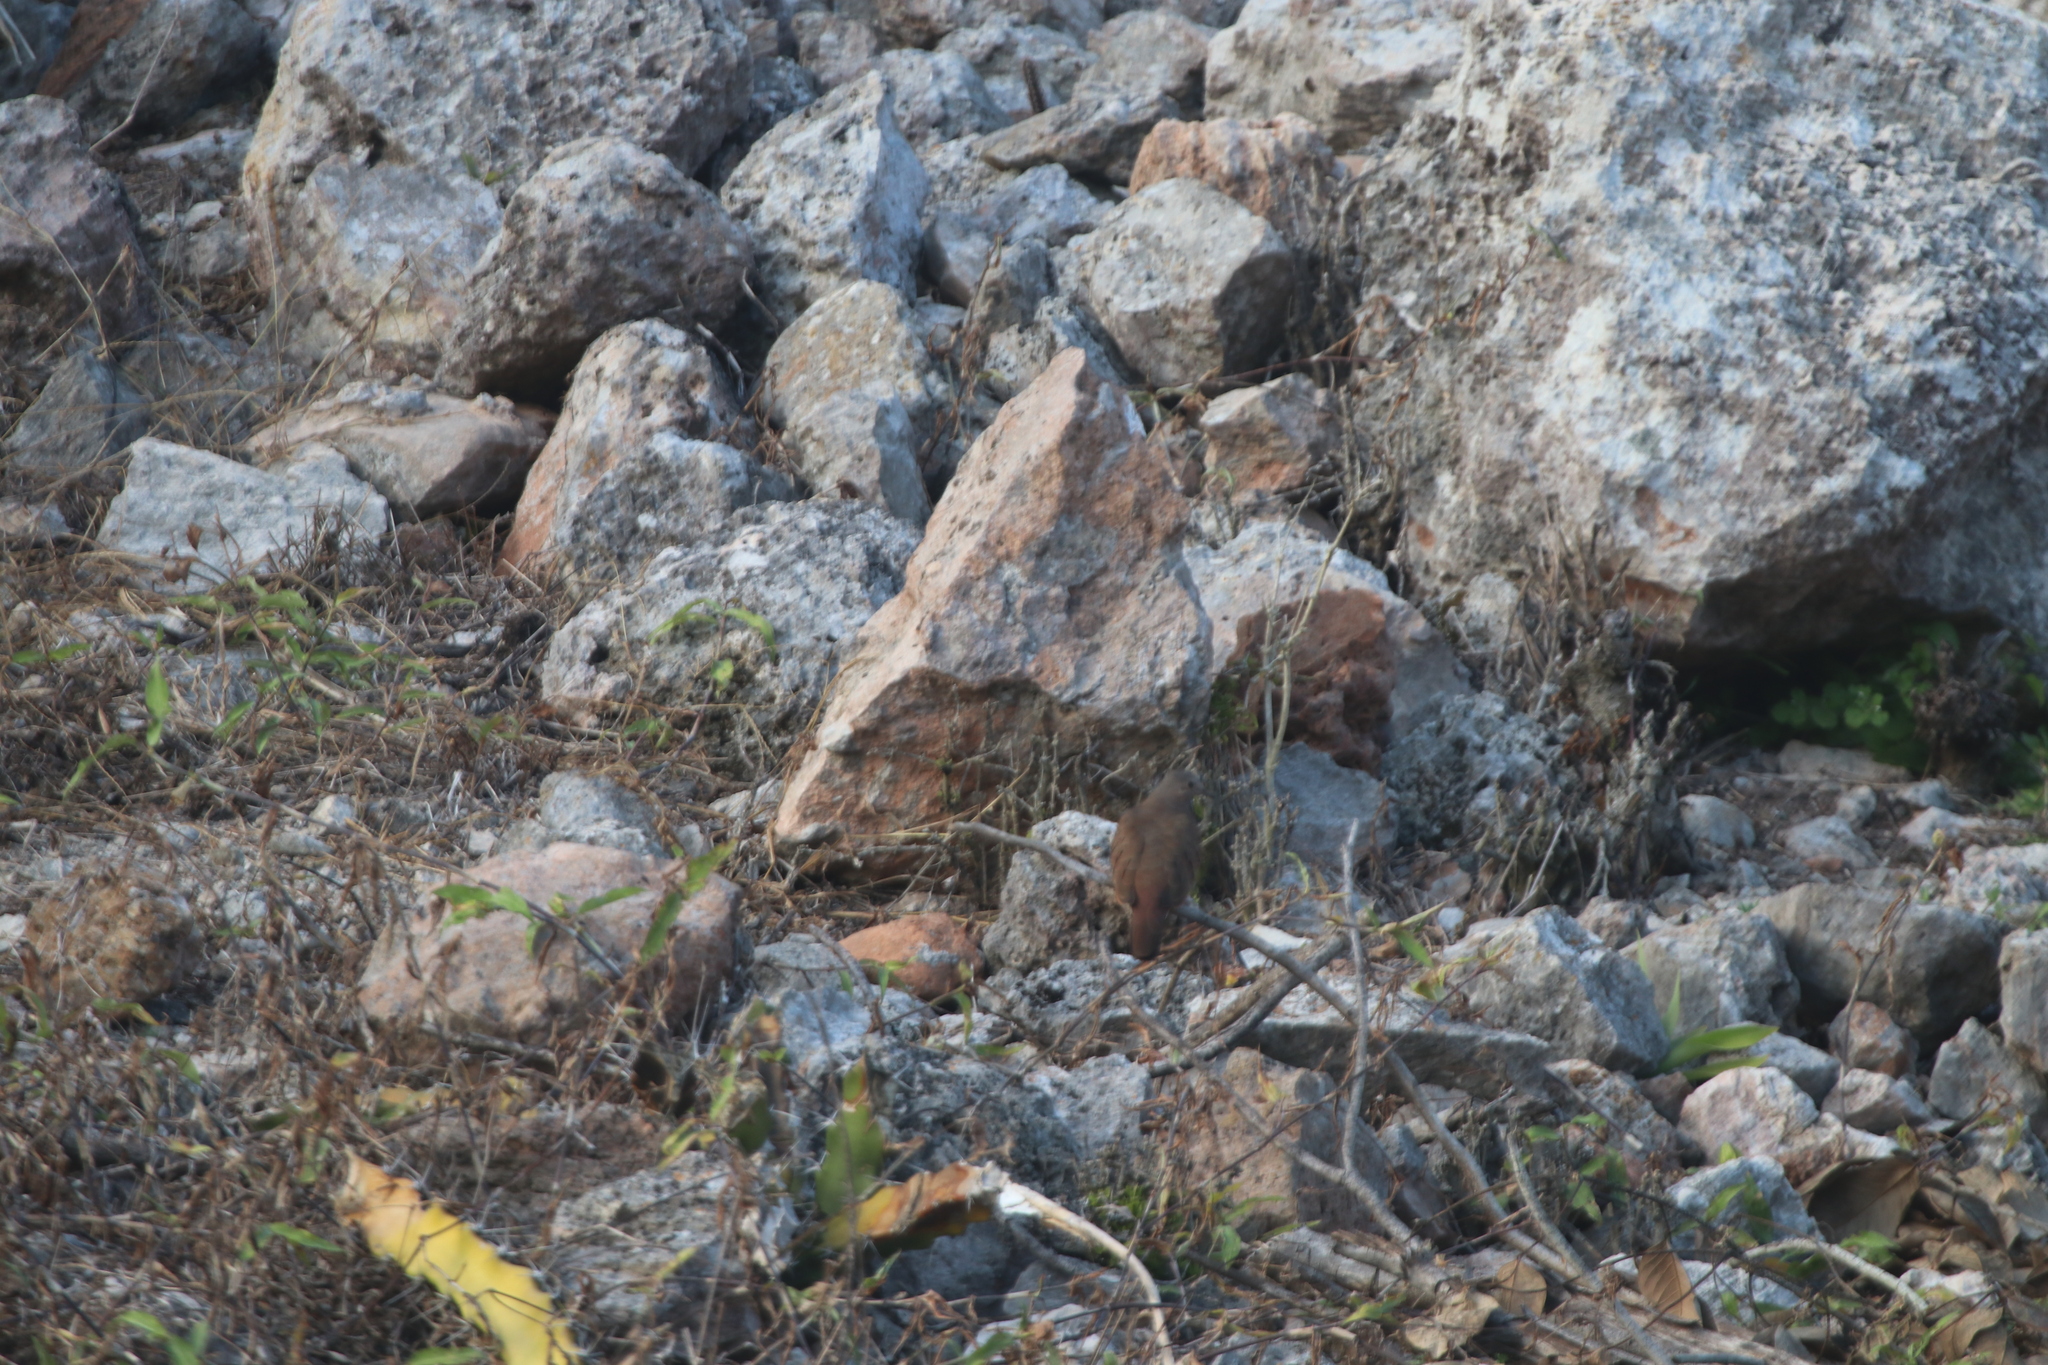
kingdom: Animalia
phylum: Chordata
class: Aves
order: Columbiformes
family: Columbidae
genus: Columbina
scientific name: Columbina talpacoti
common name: Ruddy ground dove
